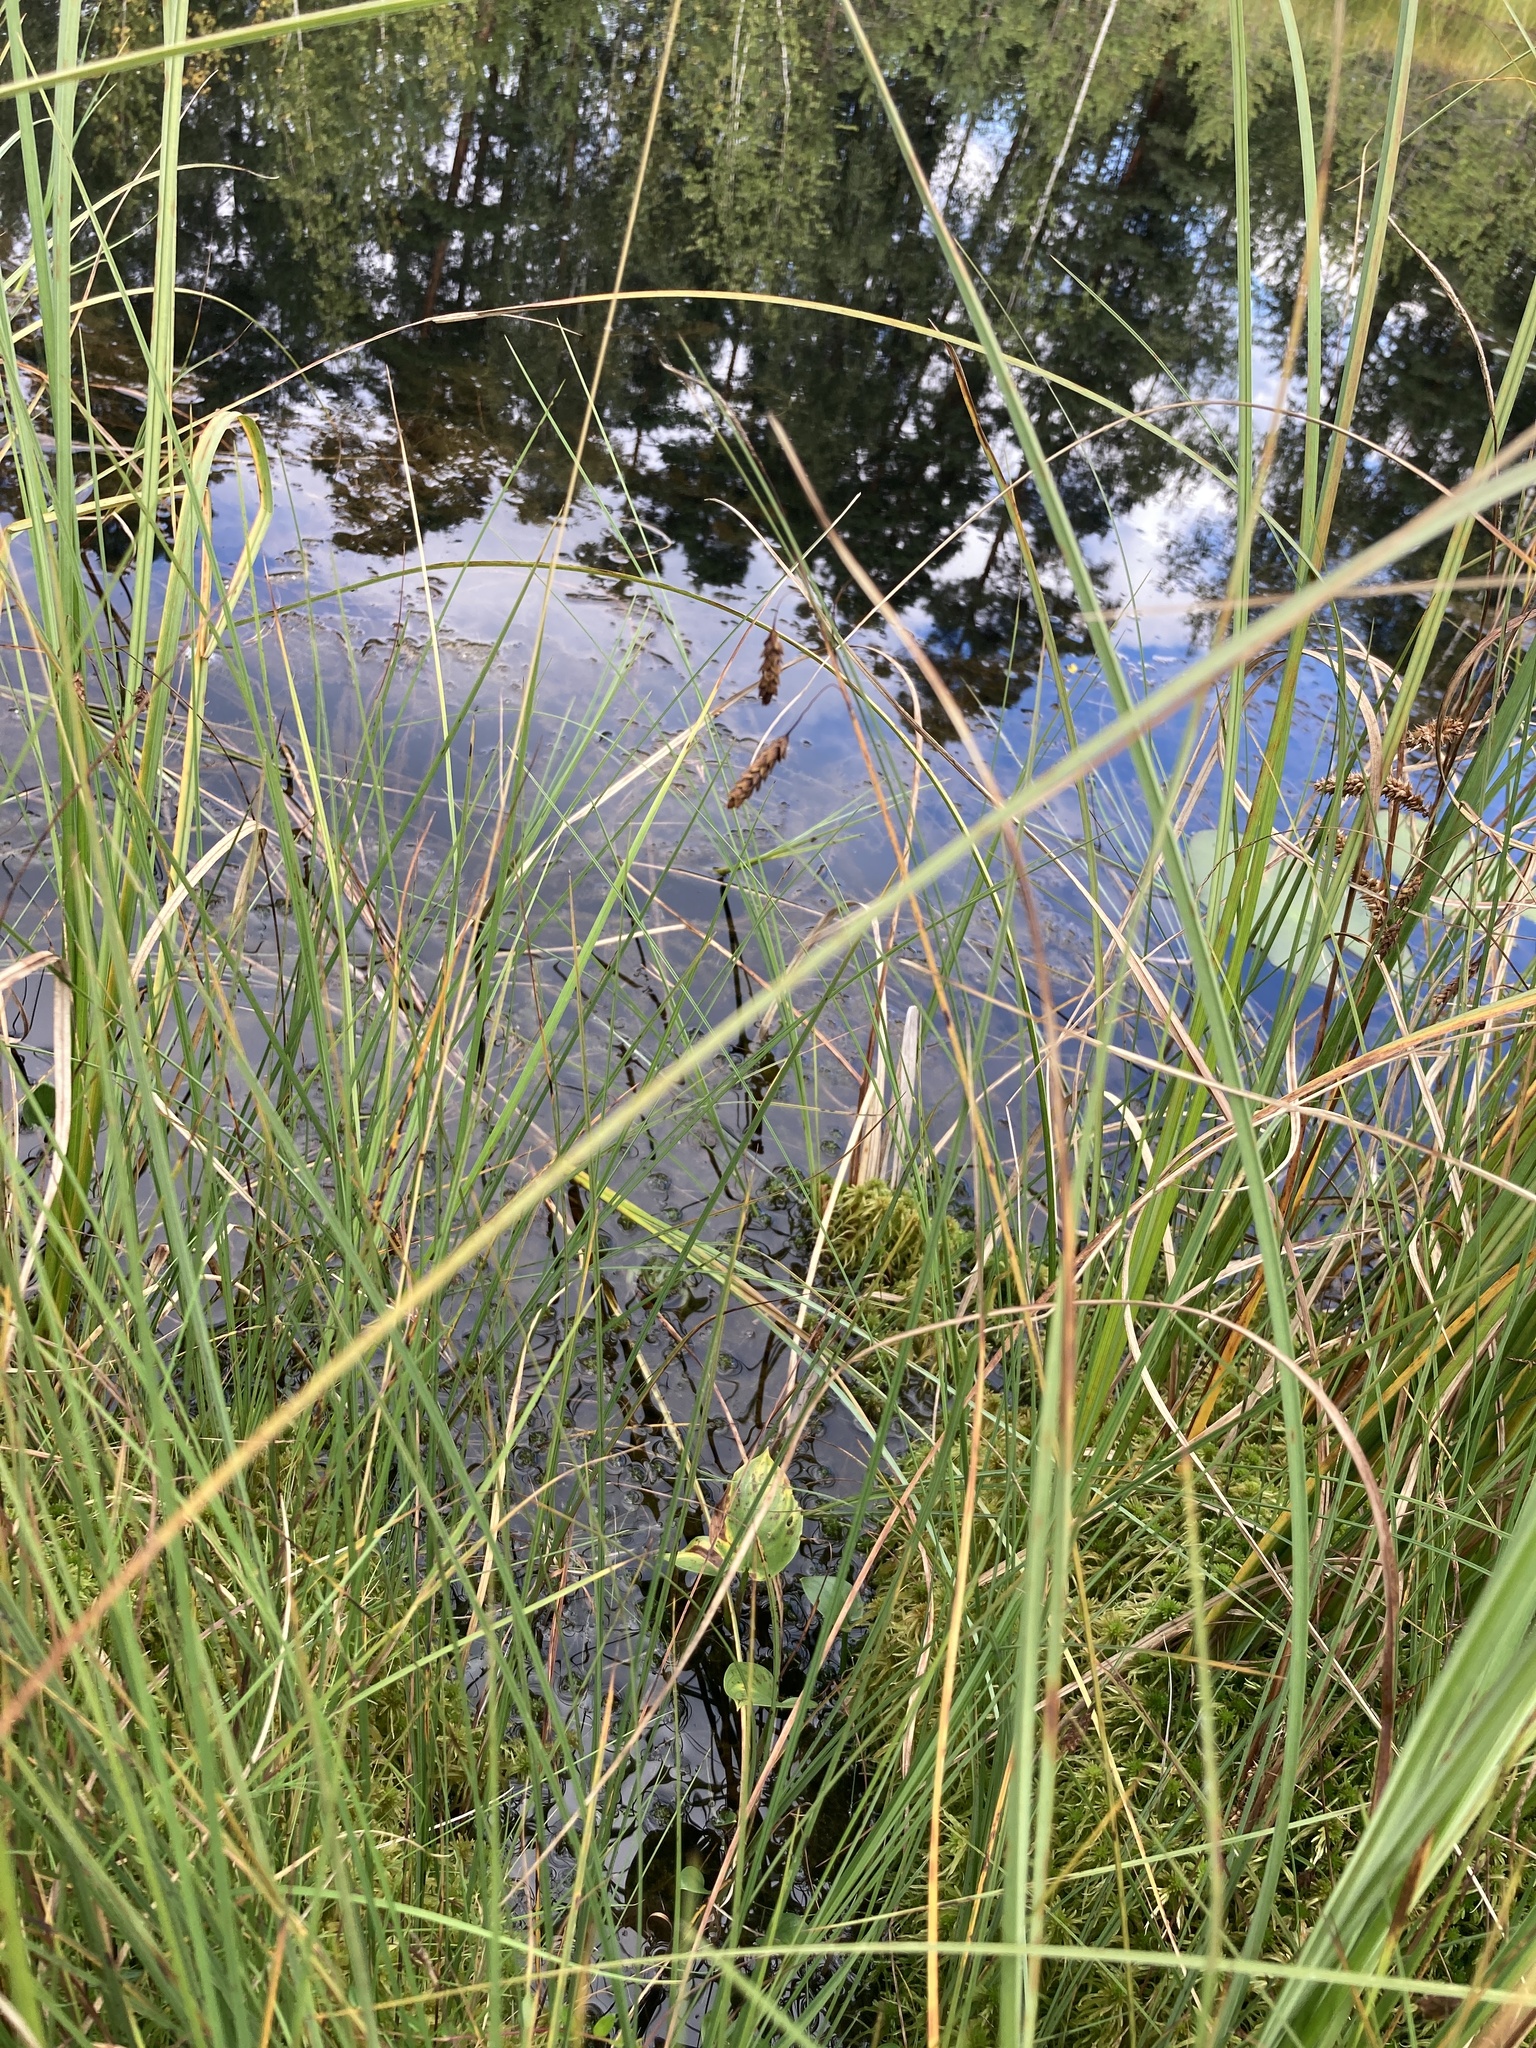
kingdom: Plantae
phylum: Tracheophyta
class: Liliopsida
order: Poales
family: Cyperaceae
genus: Carex
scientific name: Carex limosa
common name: Bog sedge
